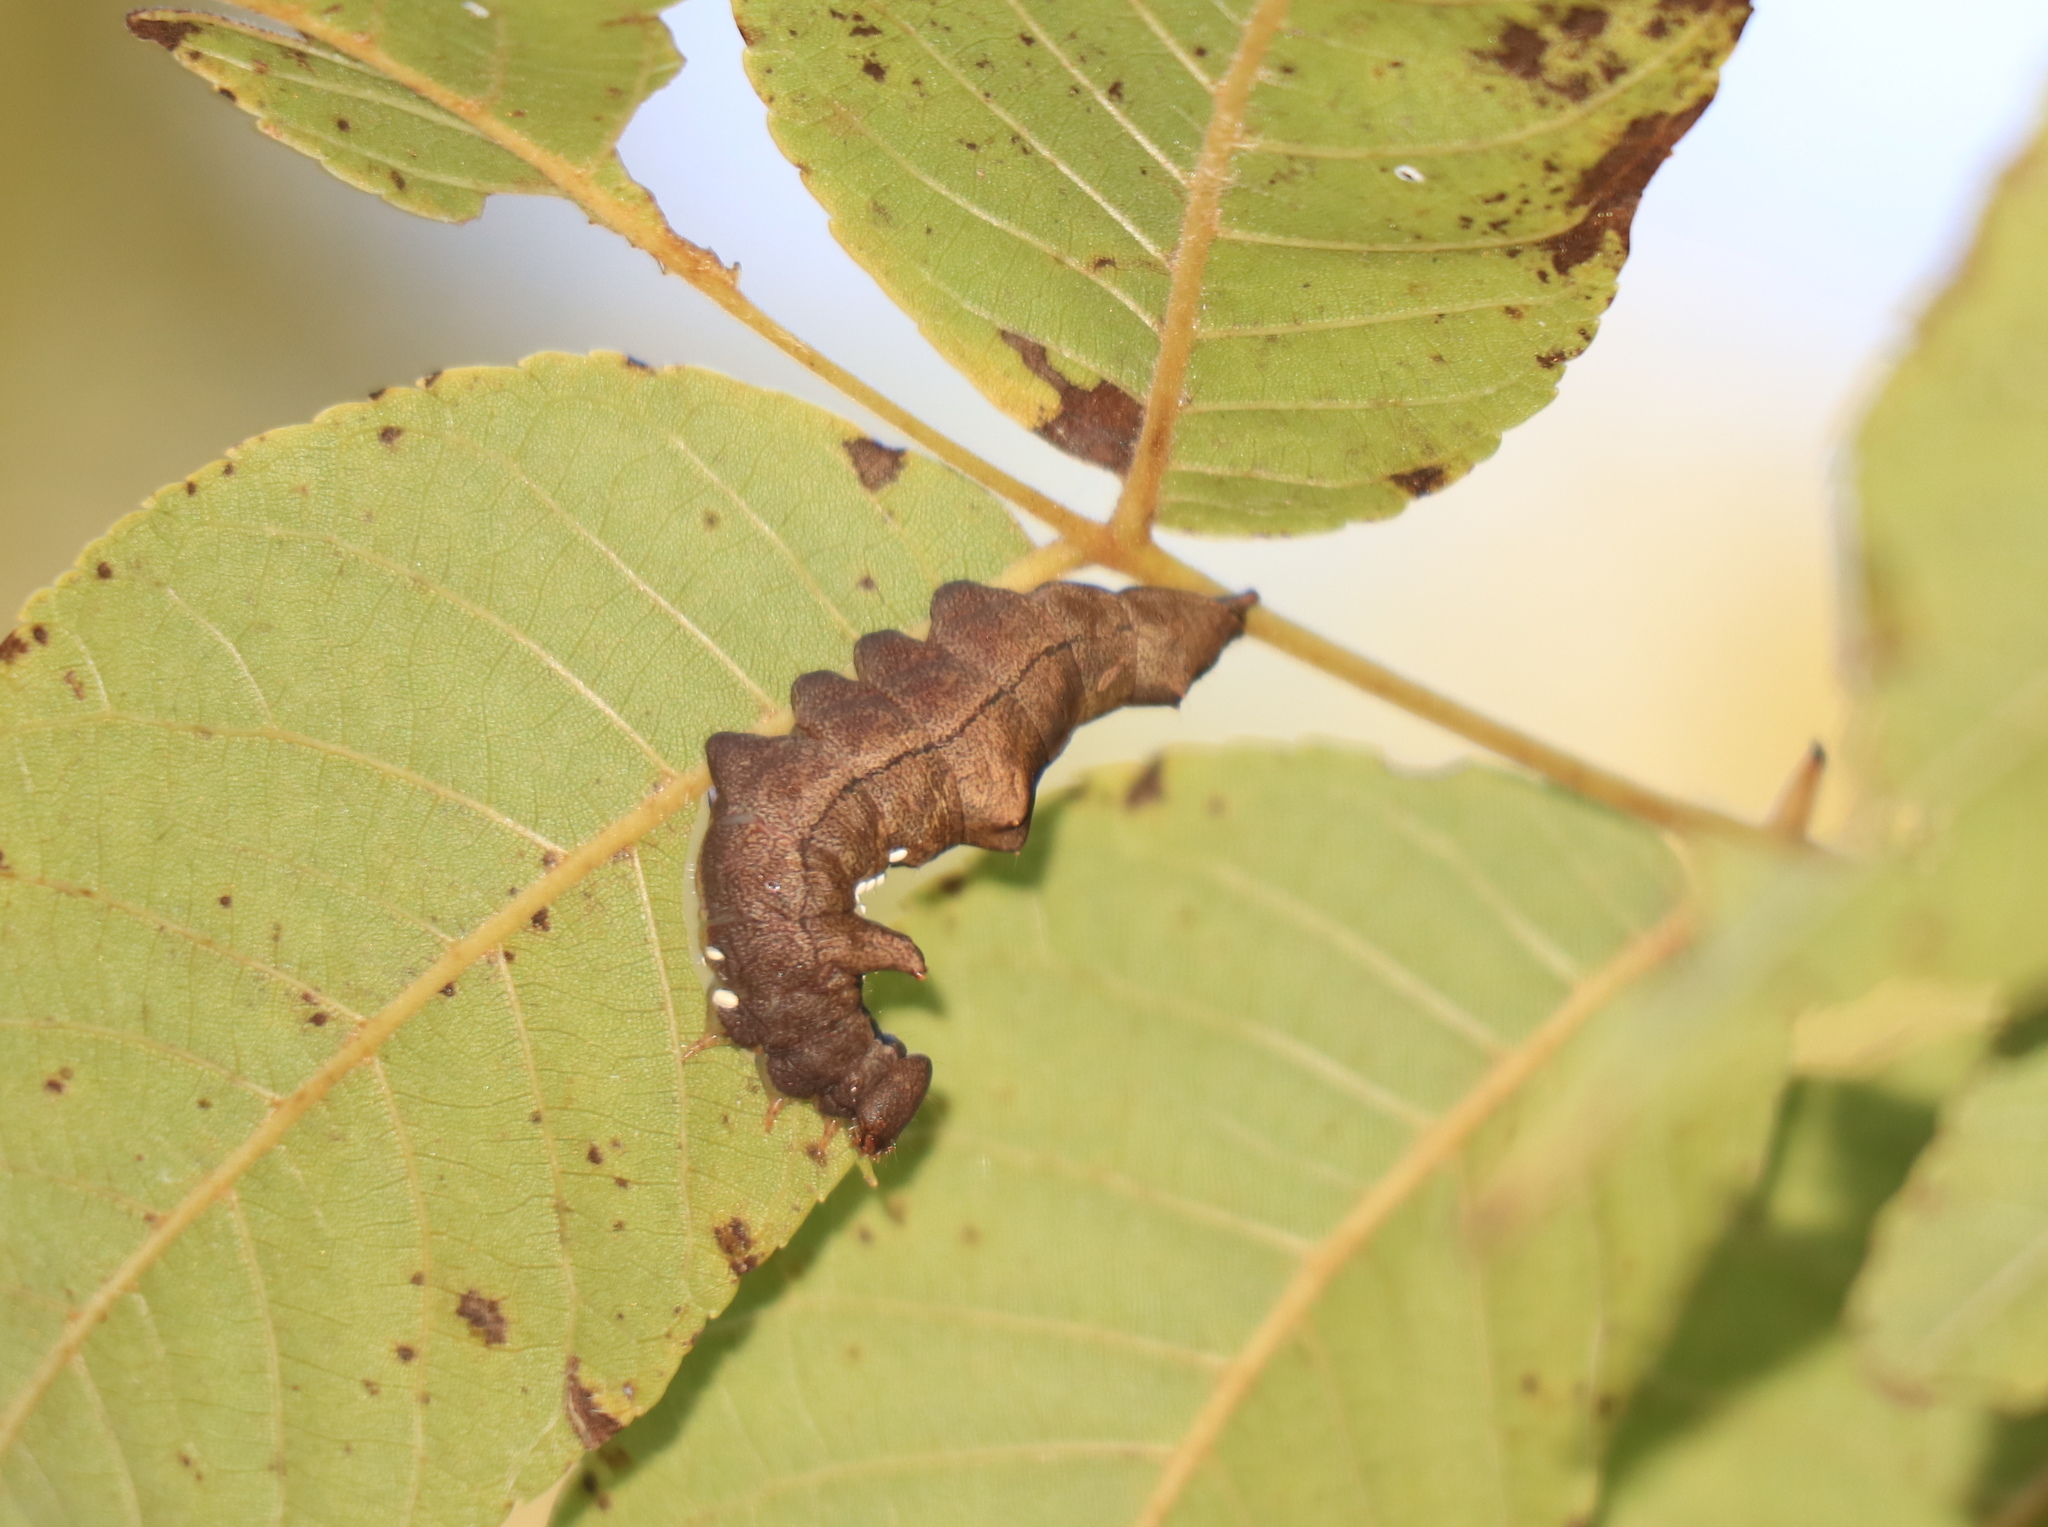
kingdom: Animalia
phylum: Arthropoda
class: Insecta
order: Lepidoptera
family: Notodontidae
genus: Schizura
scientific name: Schizura
